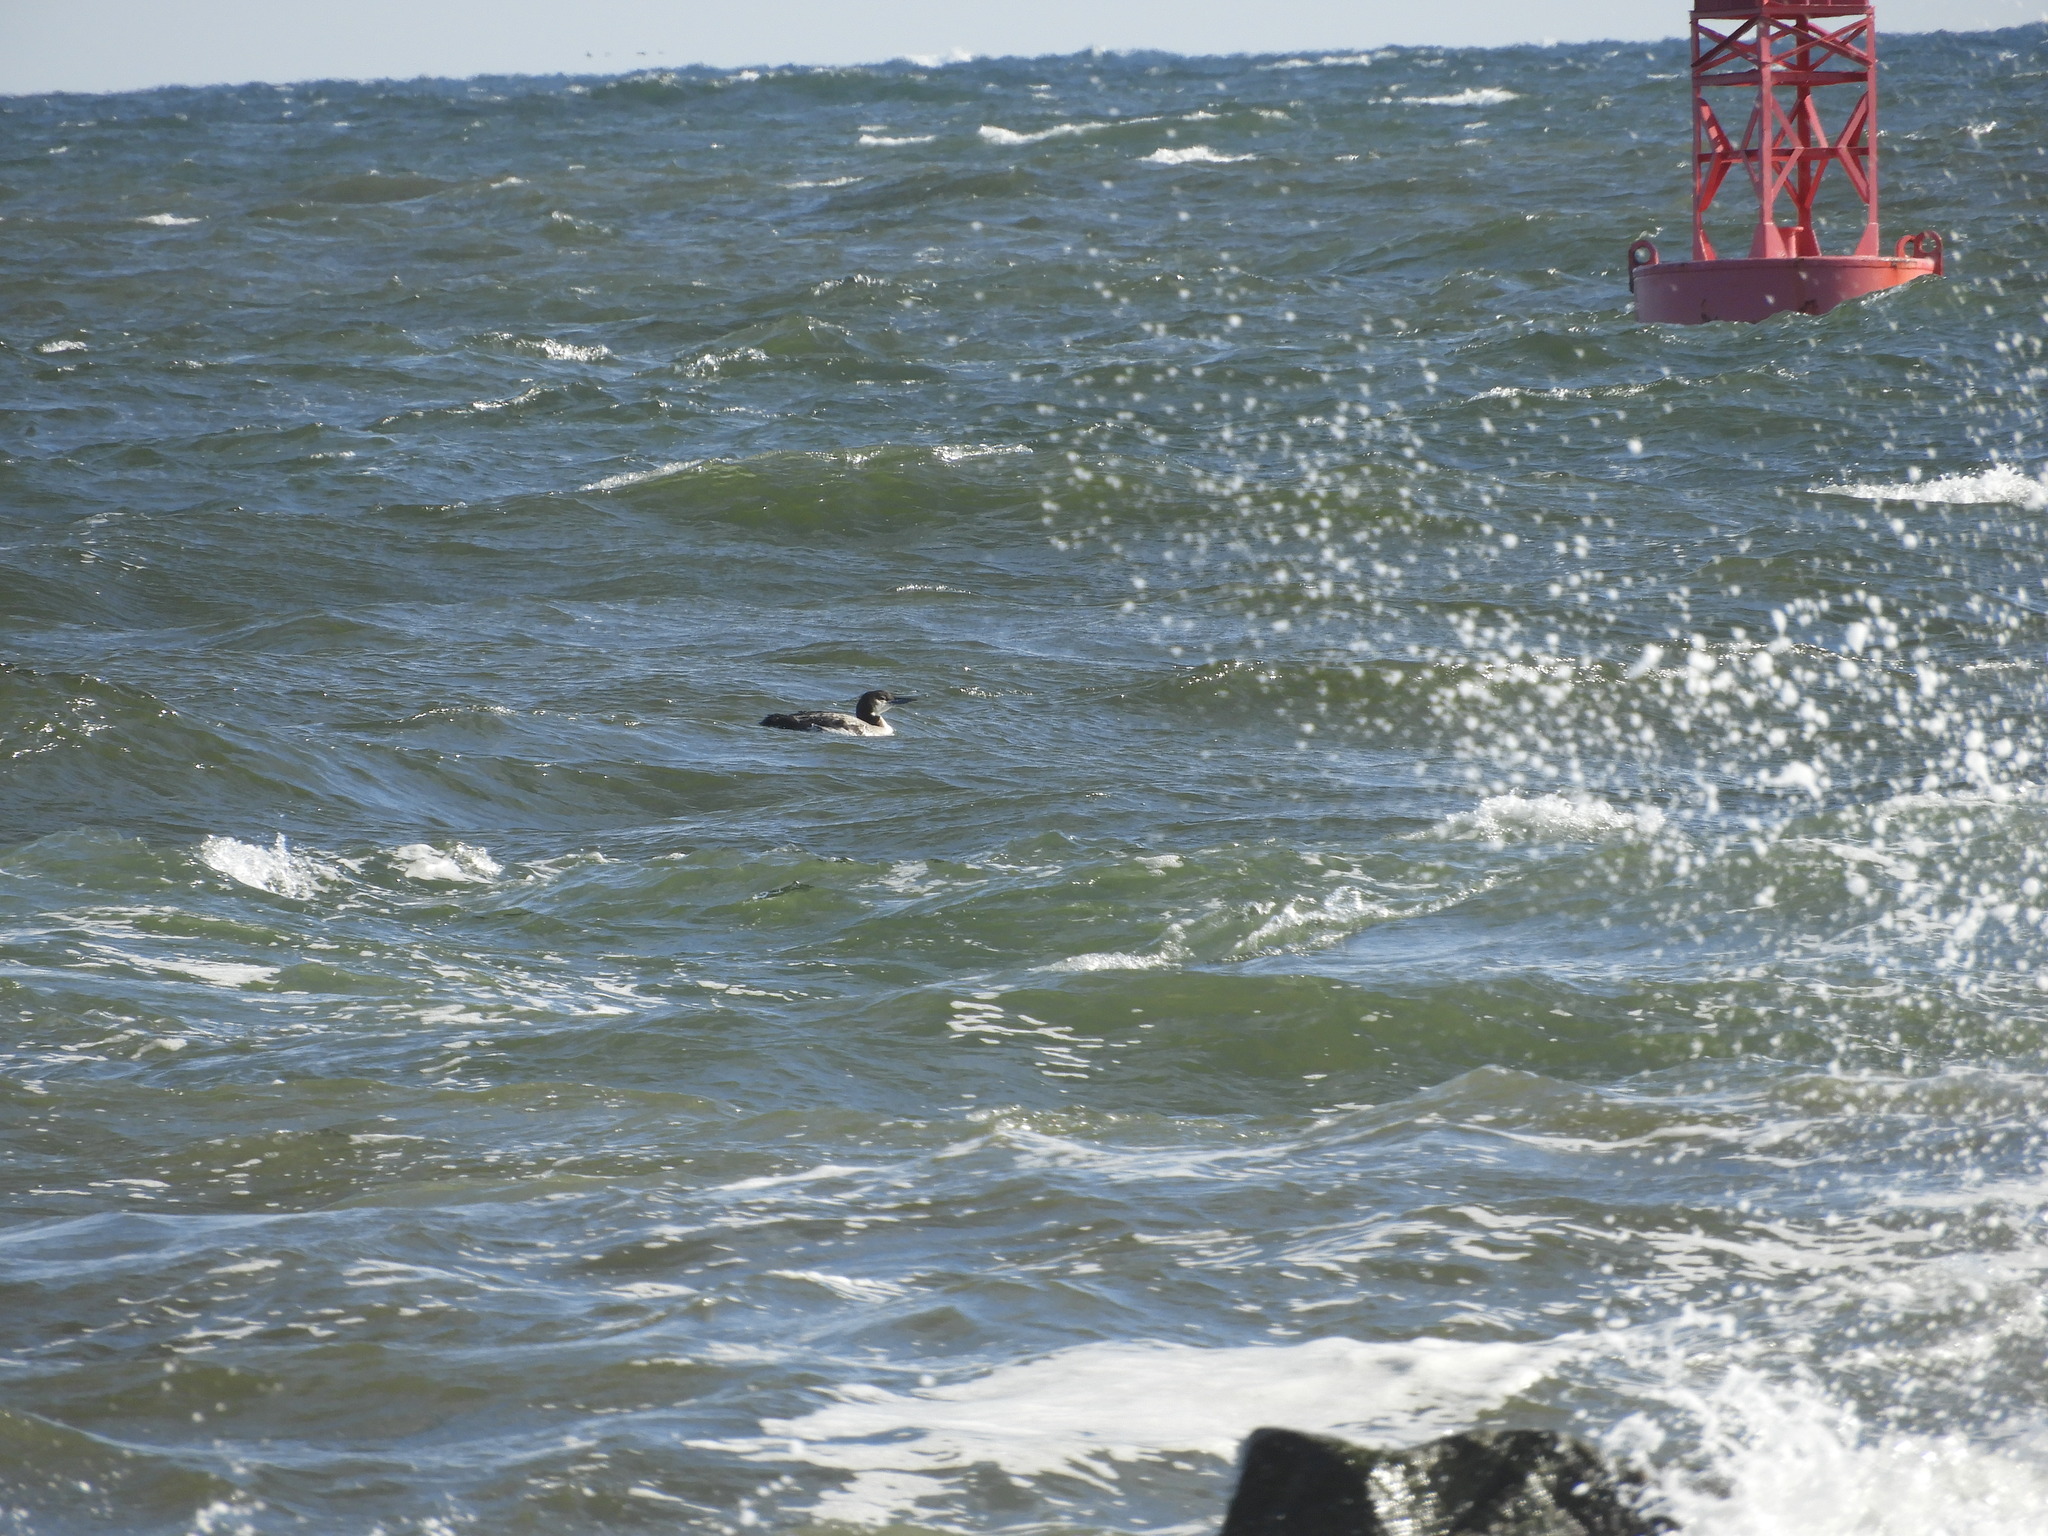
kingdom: Animalia
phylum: Chordata
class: Aves
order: Gaviiformes
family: Gaviidae
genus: Gavia
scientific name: Gavia immer
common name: Common loon
